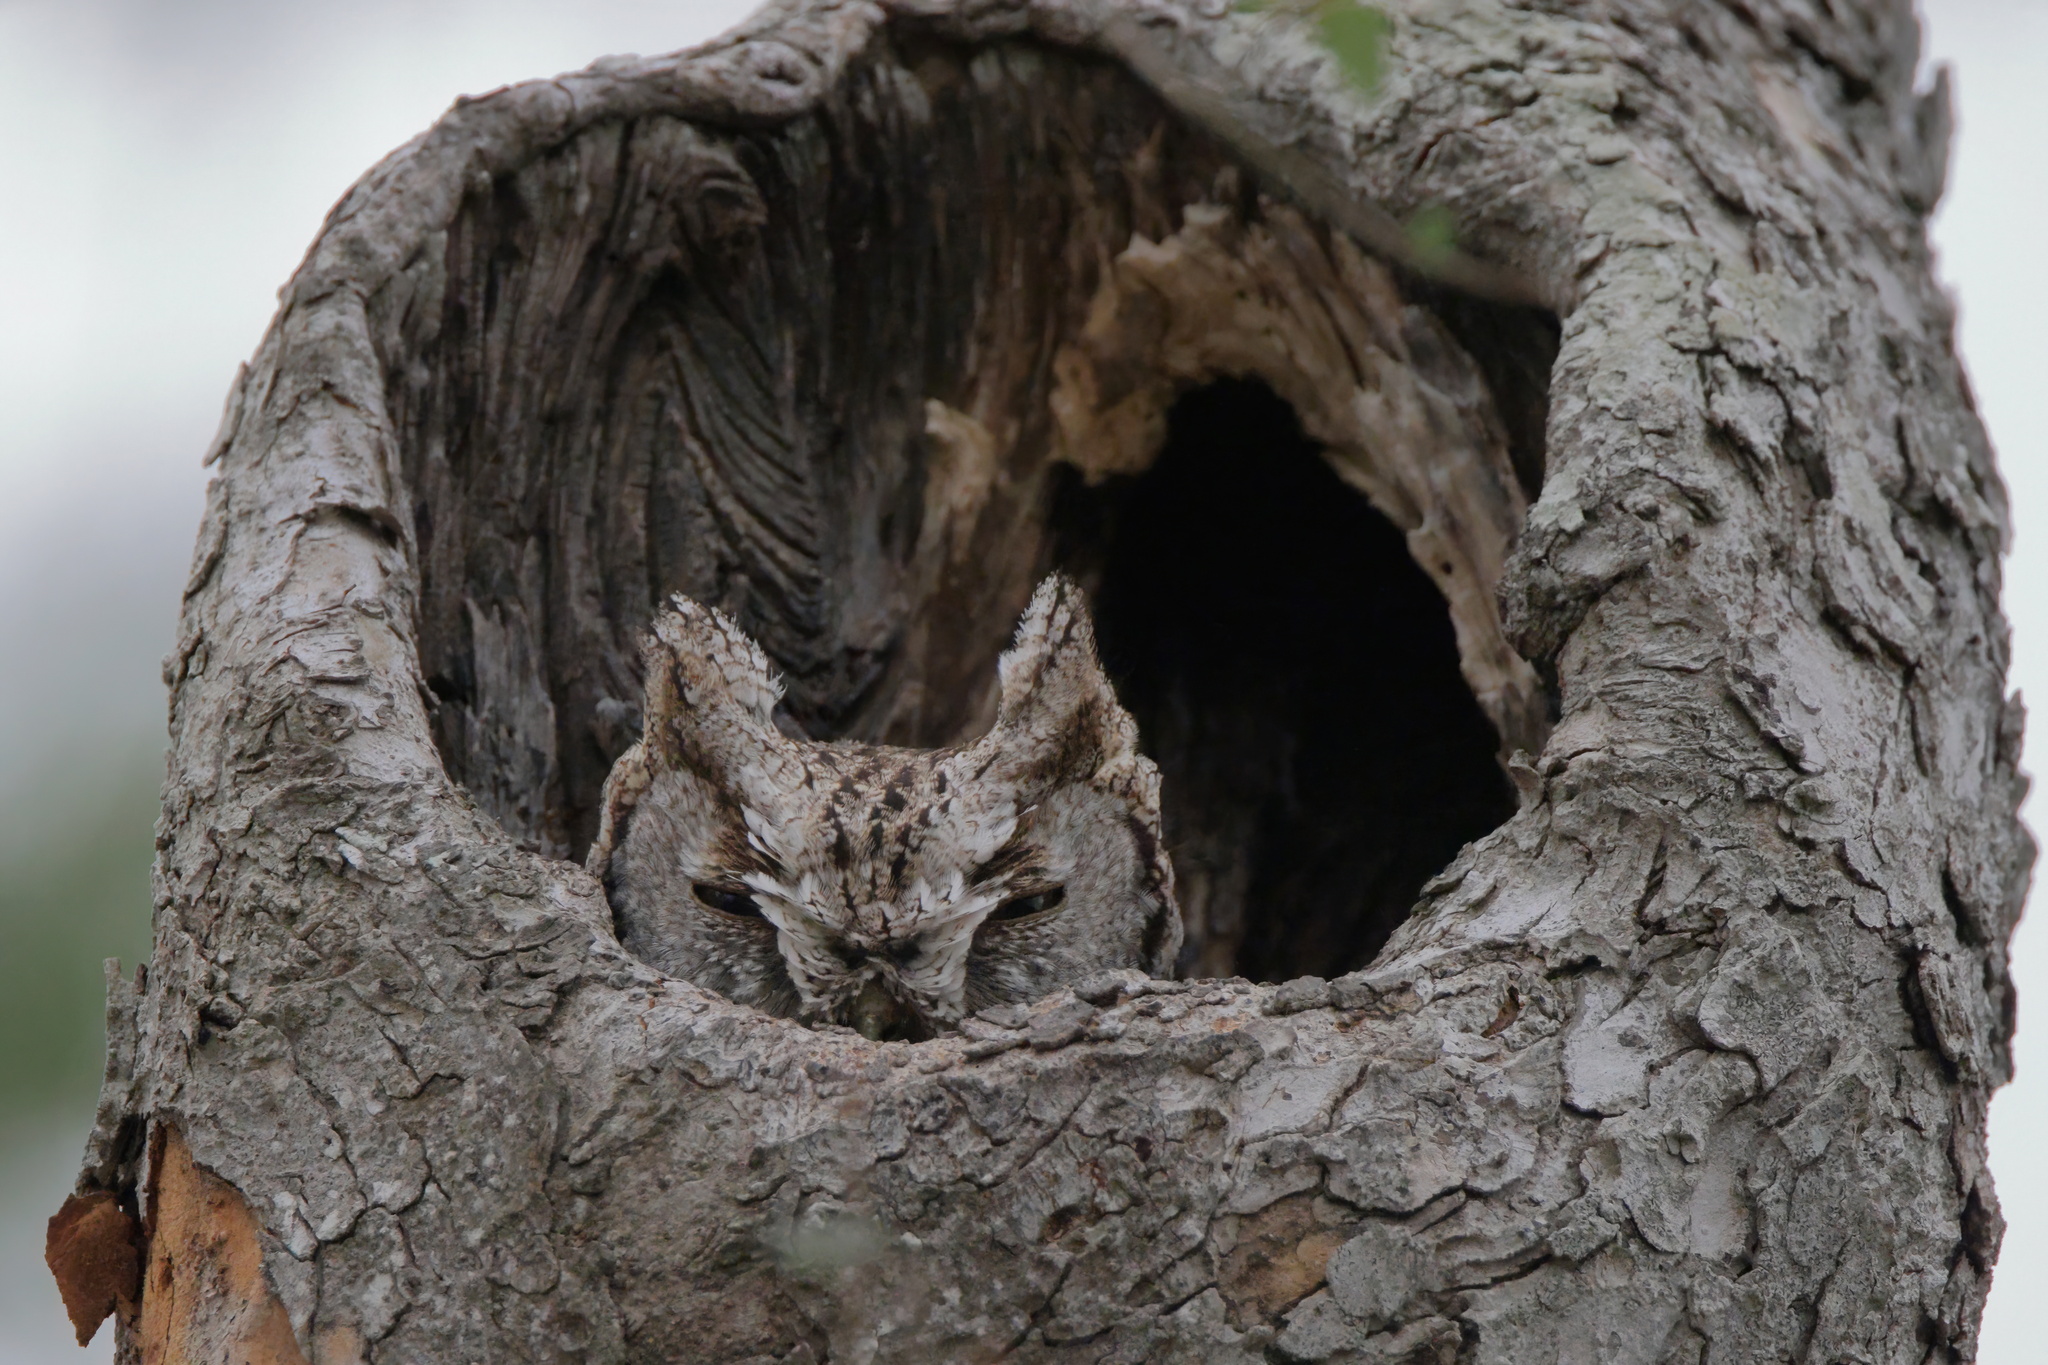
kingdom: Animalia
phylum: Chordata
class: Aves
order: Strigiformes
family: Strigidae
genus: Megascops
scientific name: Megascops asio
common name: Eastern screech-owl
